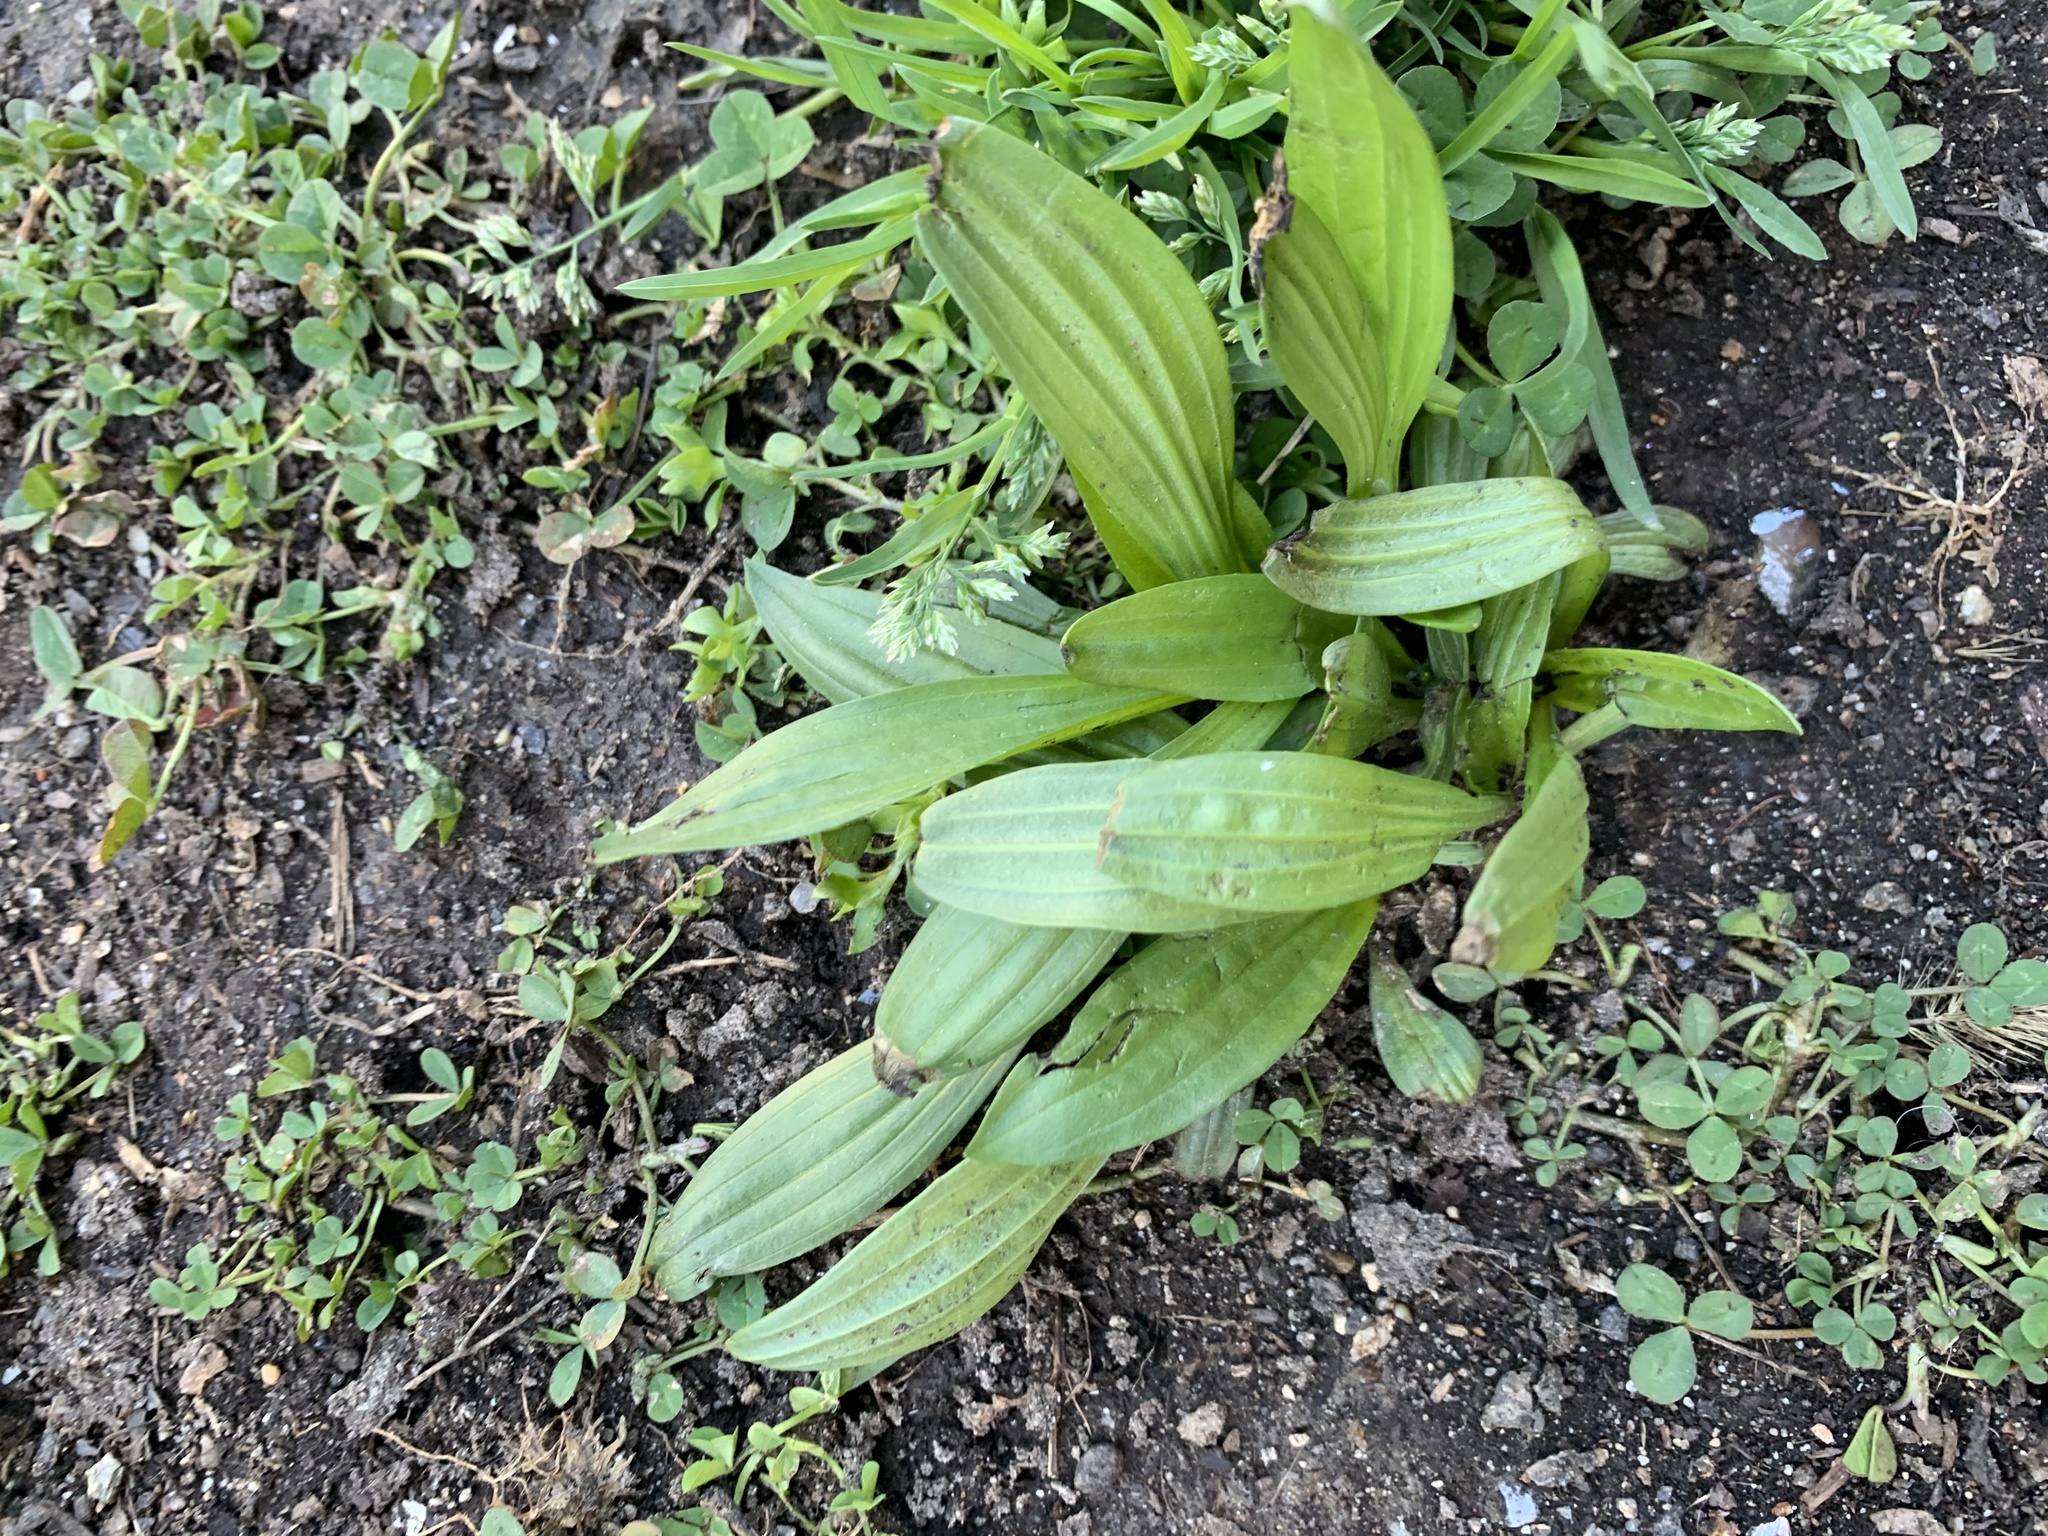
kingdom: Plantae
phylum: Tracheophyta
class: Magnoliopsida
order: Lamiales
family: Plantaginaceae
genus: Plantago
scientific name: Plantago lanceolata
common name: Ribwort plantain
